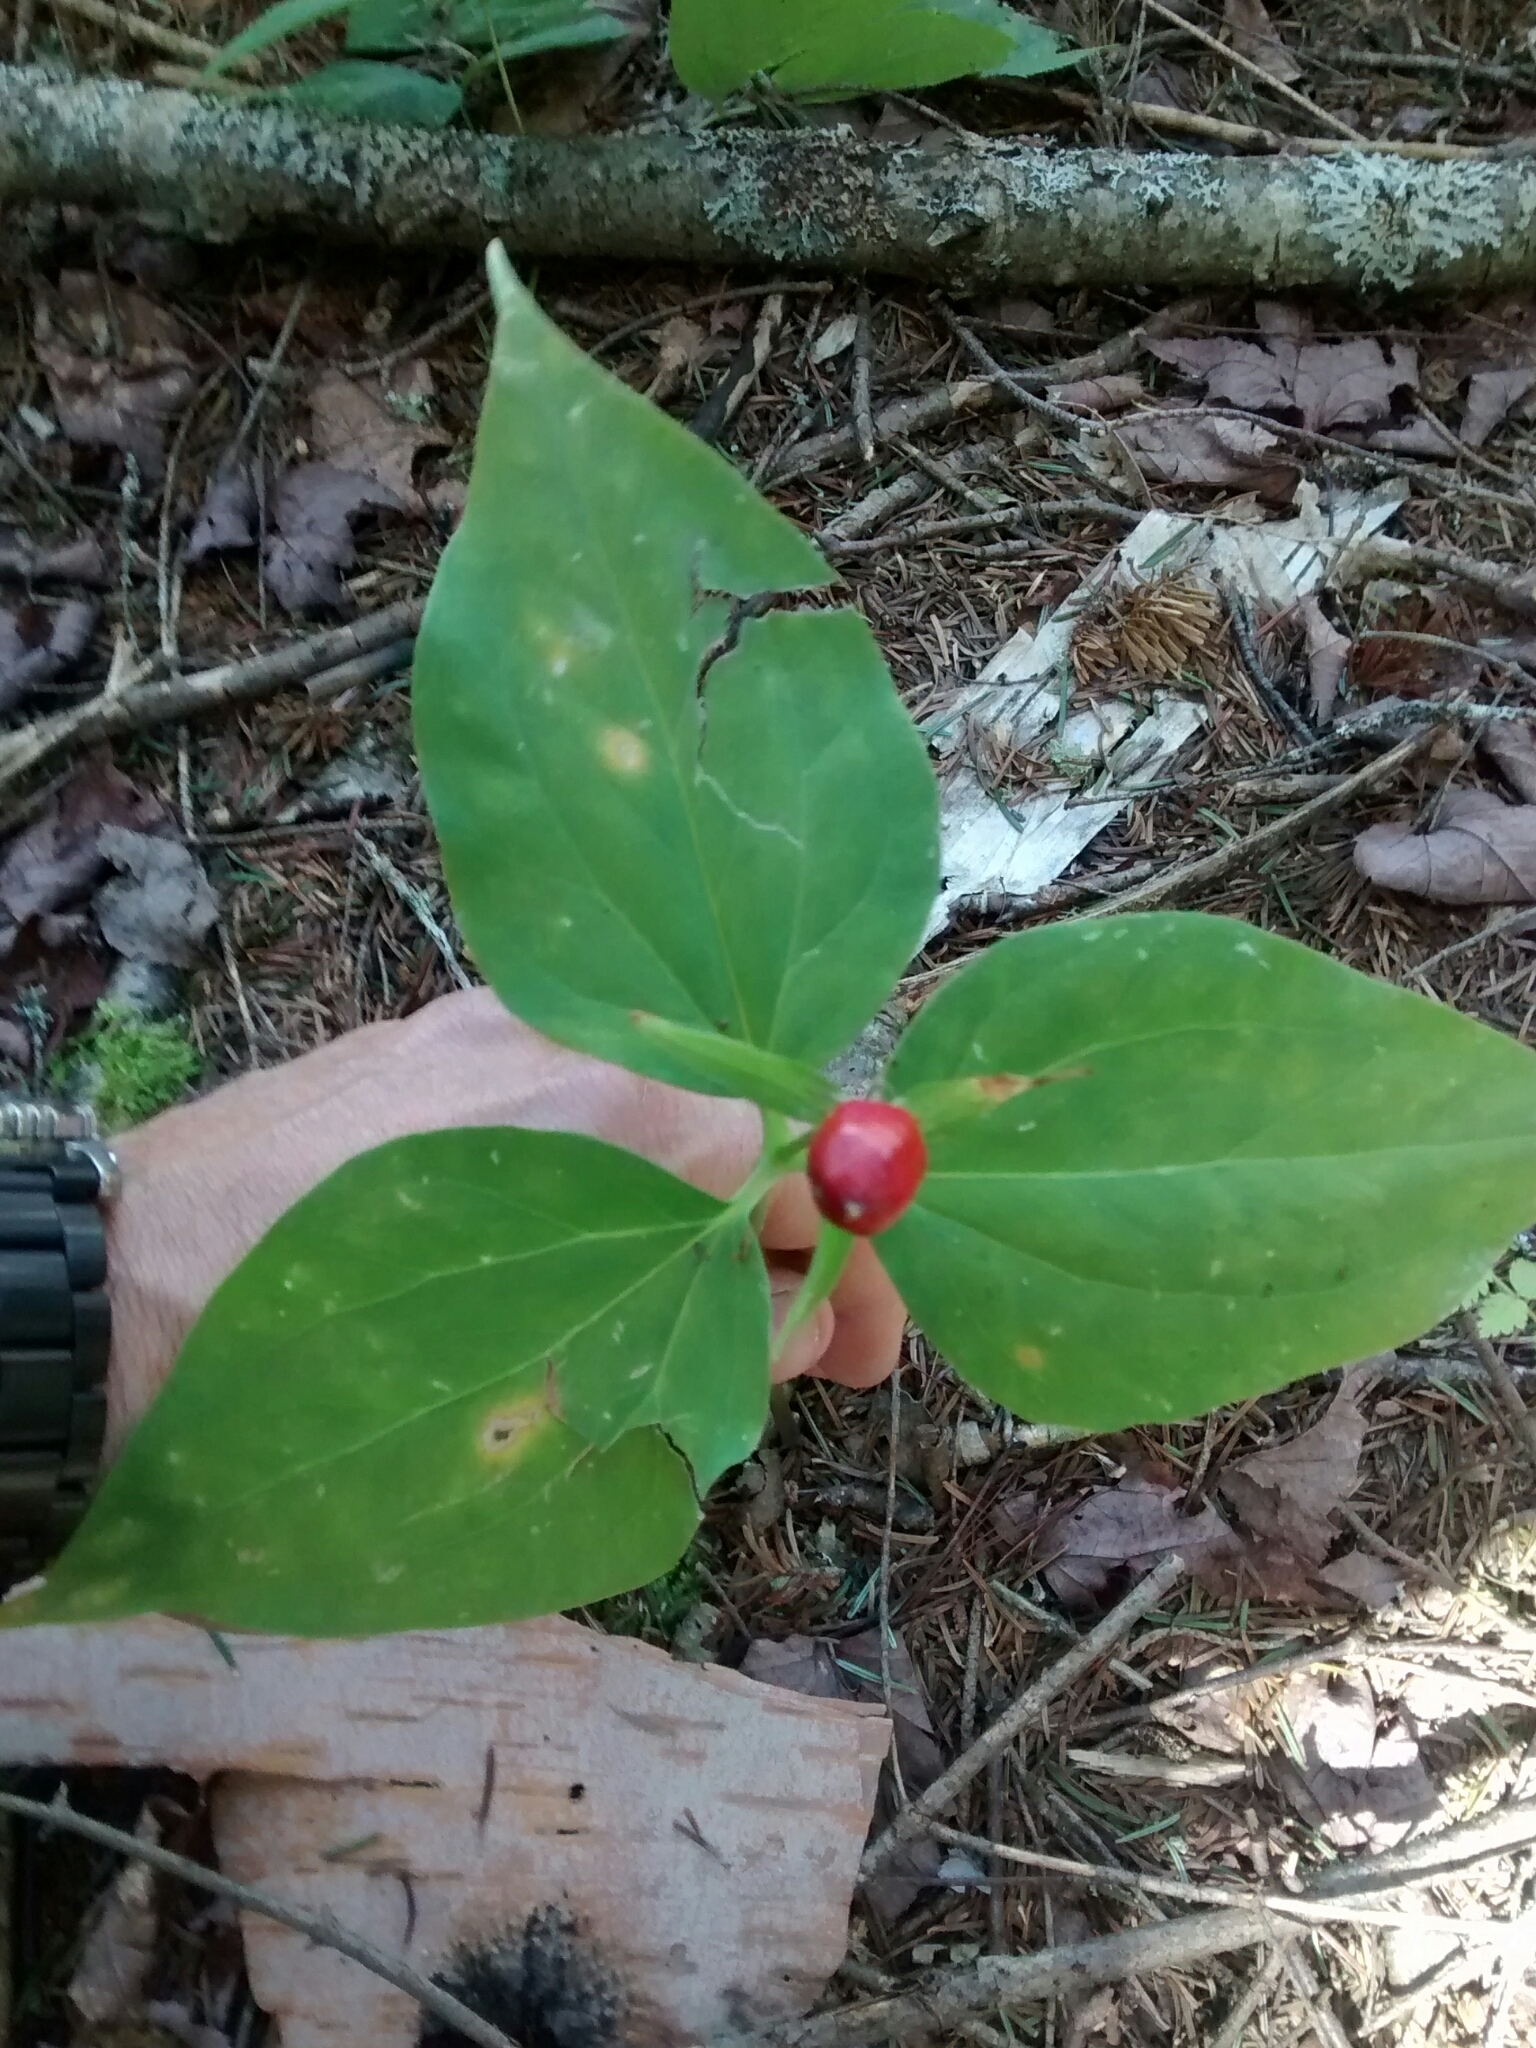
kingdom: Plantae
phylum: Tracheophyta
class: Liliopsida
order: Liliales
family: Melanthiaceae
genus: Trillium
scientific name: Trillium undulatum
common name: Paint trillium
